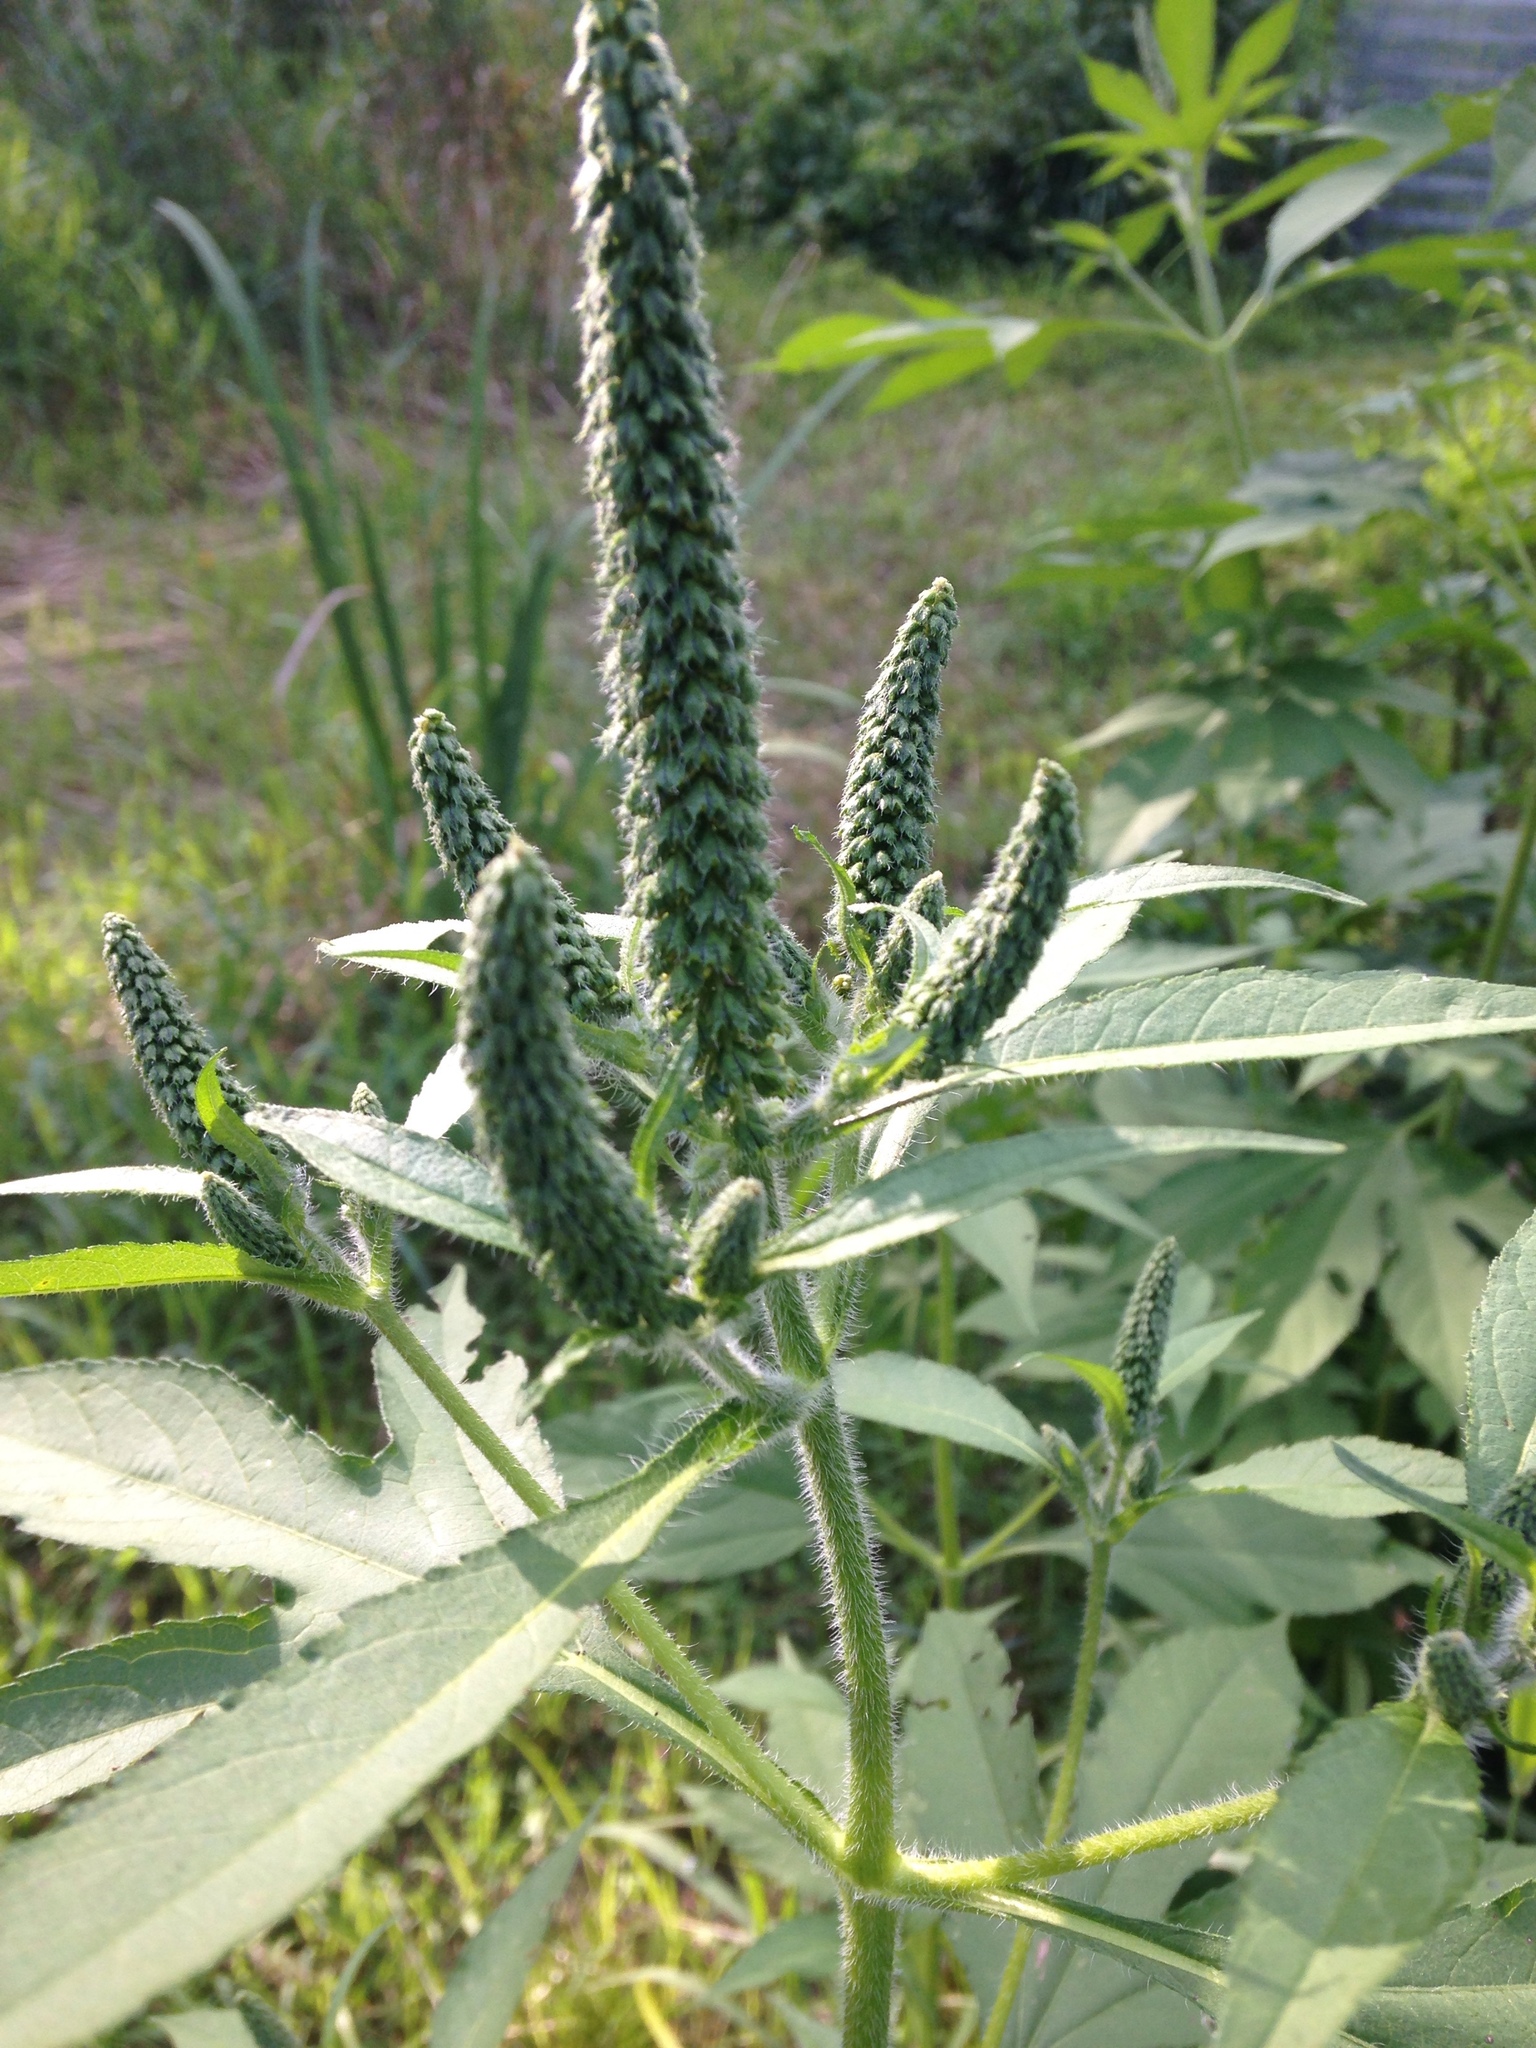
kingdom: Plantae
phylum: Tracheophyta
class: Magnoliopsida
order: Asterales
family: Asteraceae
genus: Ambrosia
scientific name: Ambrosia trifida
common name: Giant ragweed
